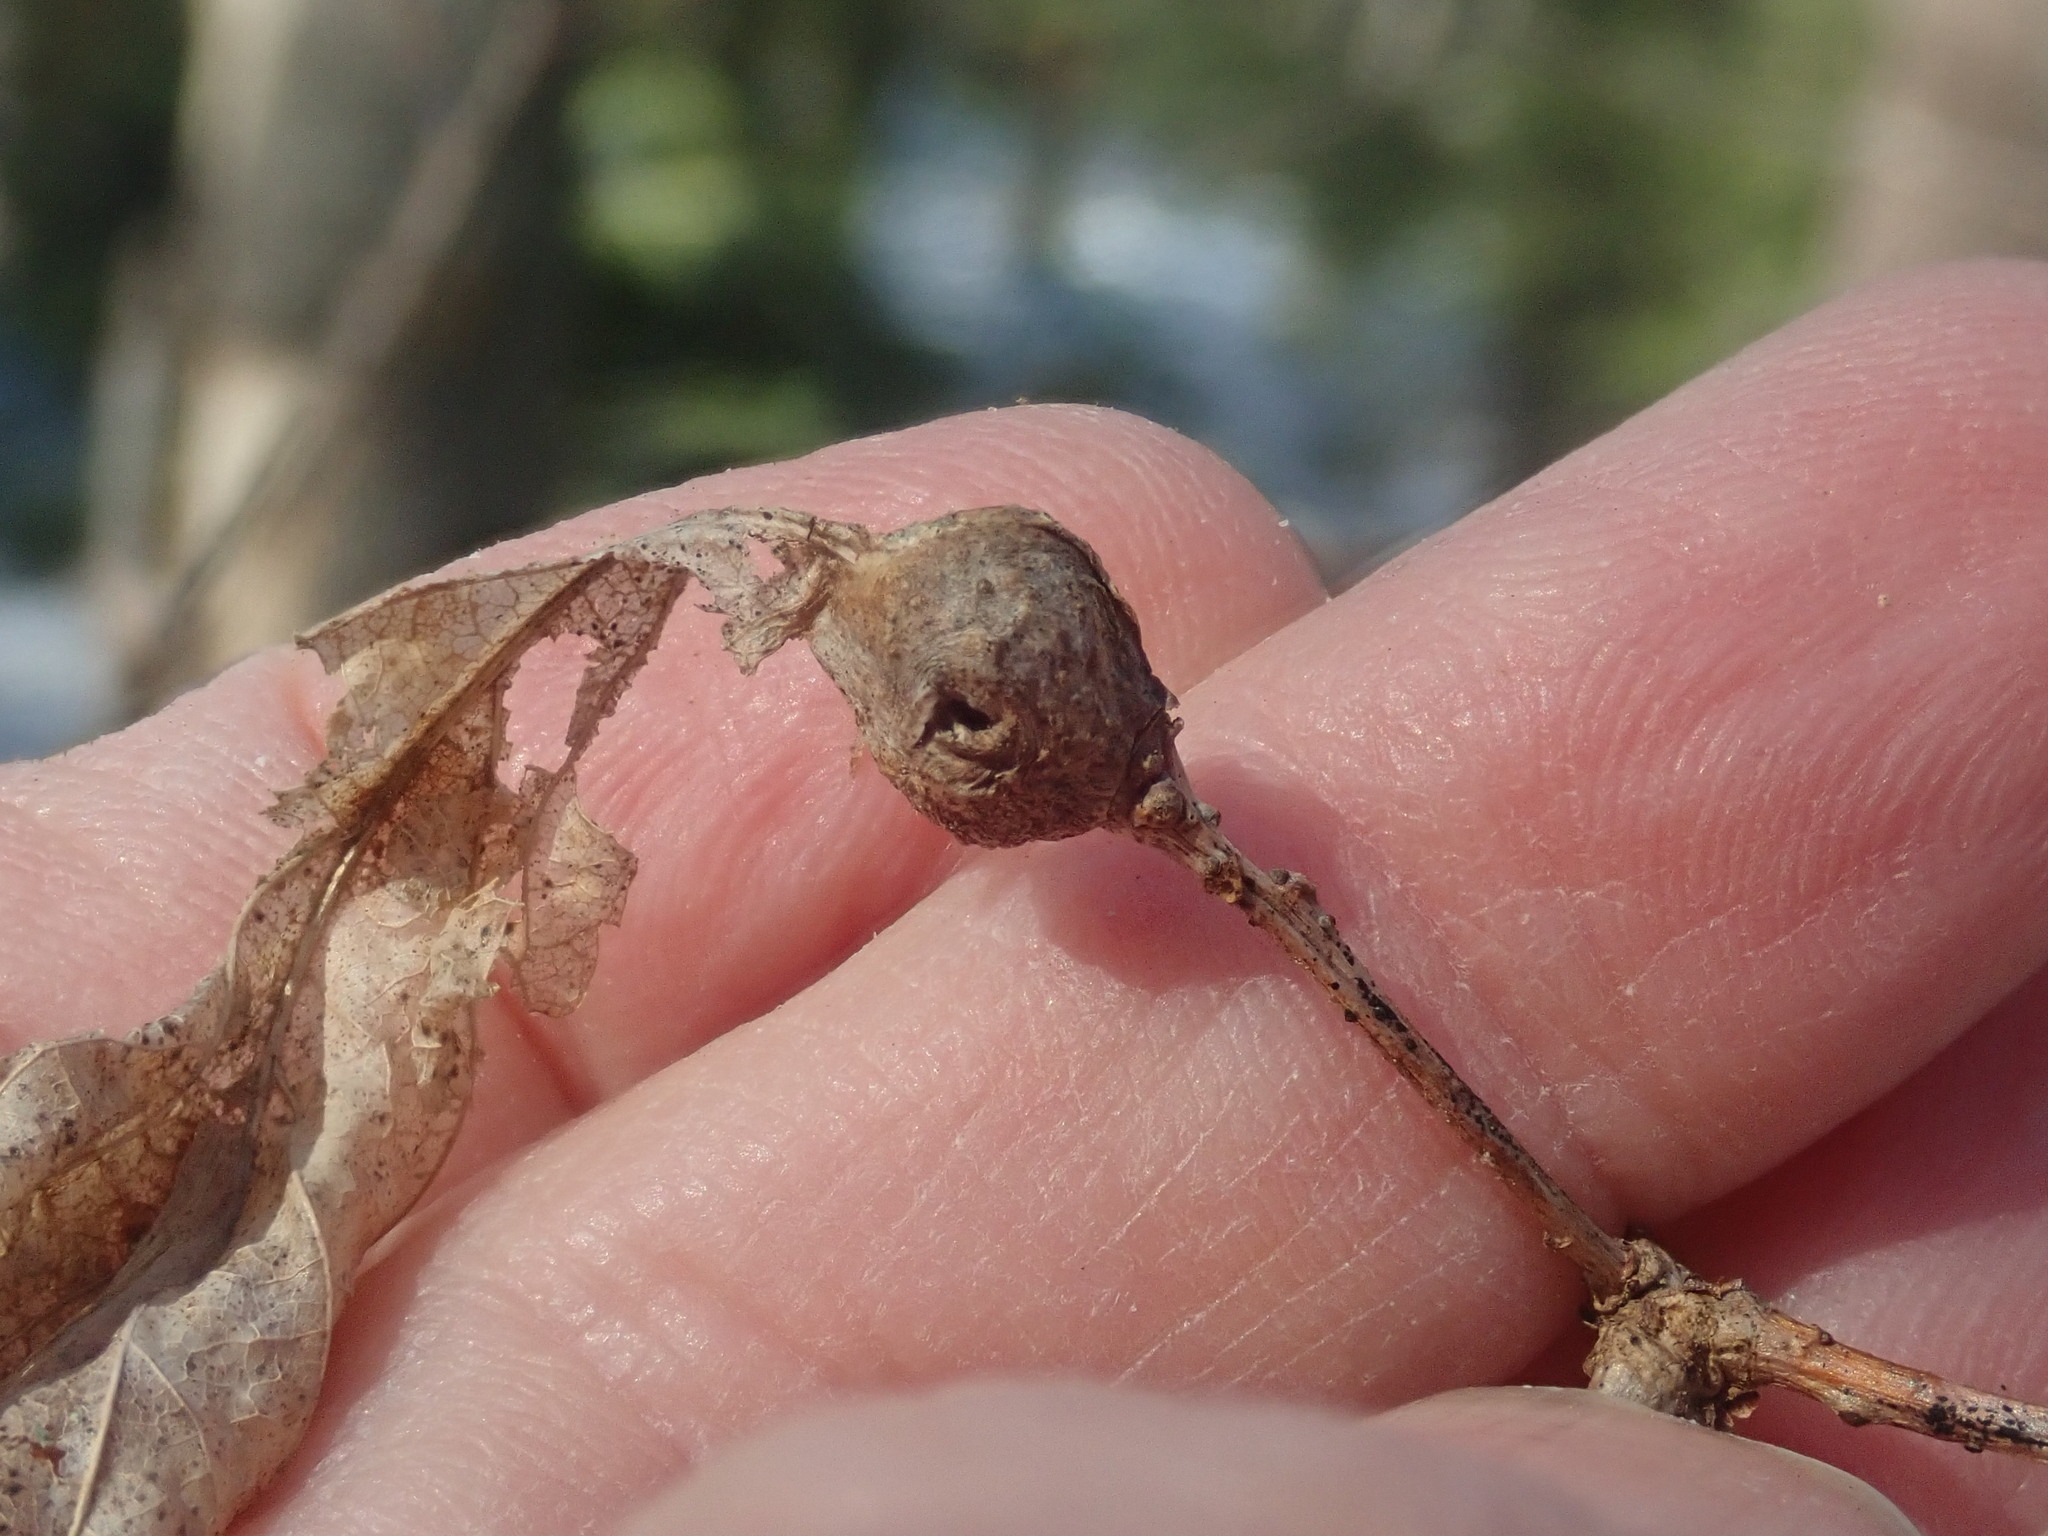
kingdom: Animalia
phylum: Arthropoda
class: Insecta
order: Hymenoptera
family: Cynipidae
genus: Andricus
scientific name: Andricus
